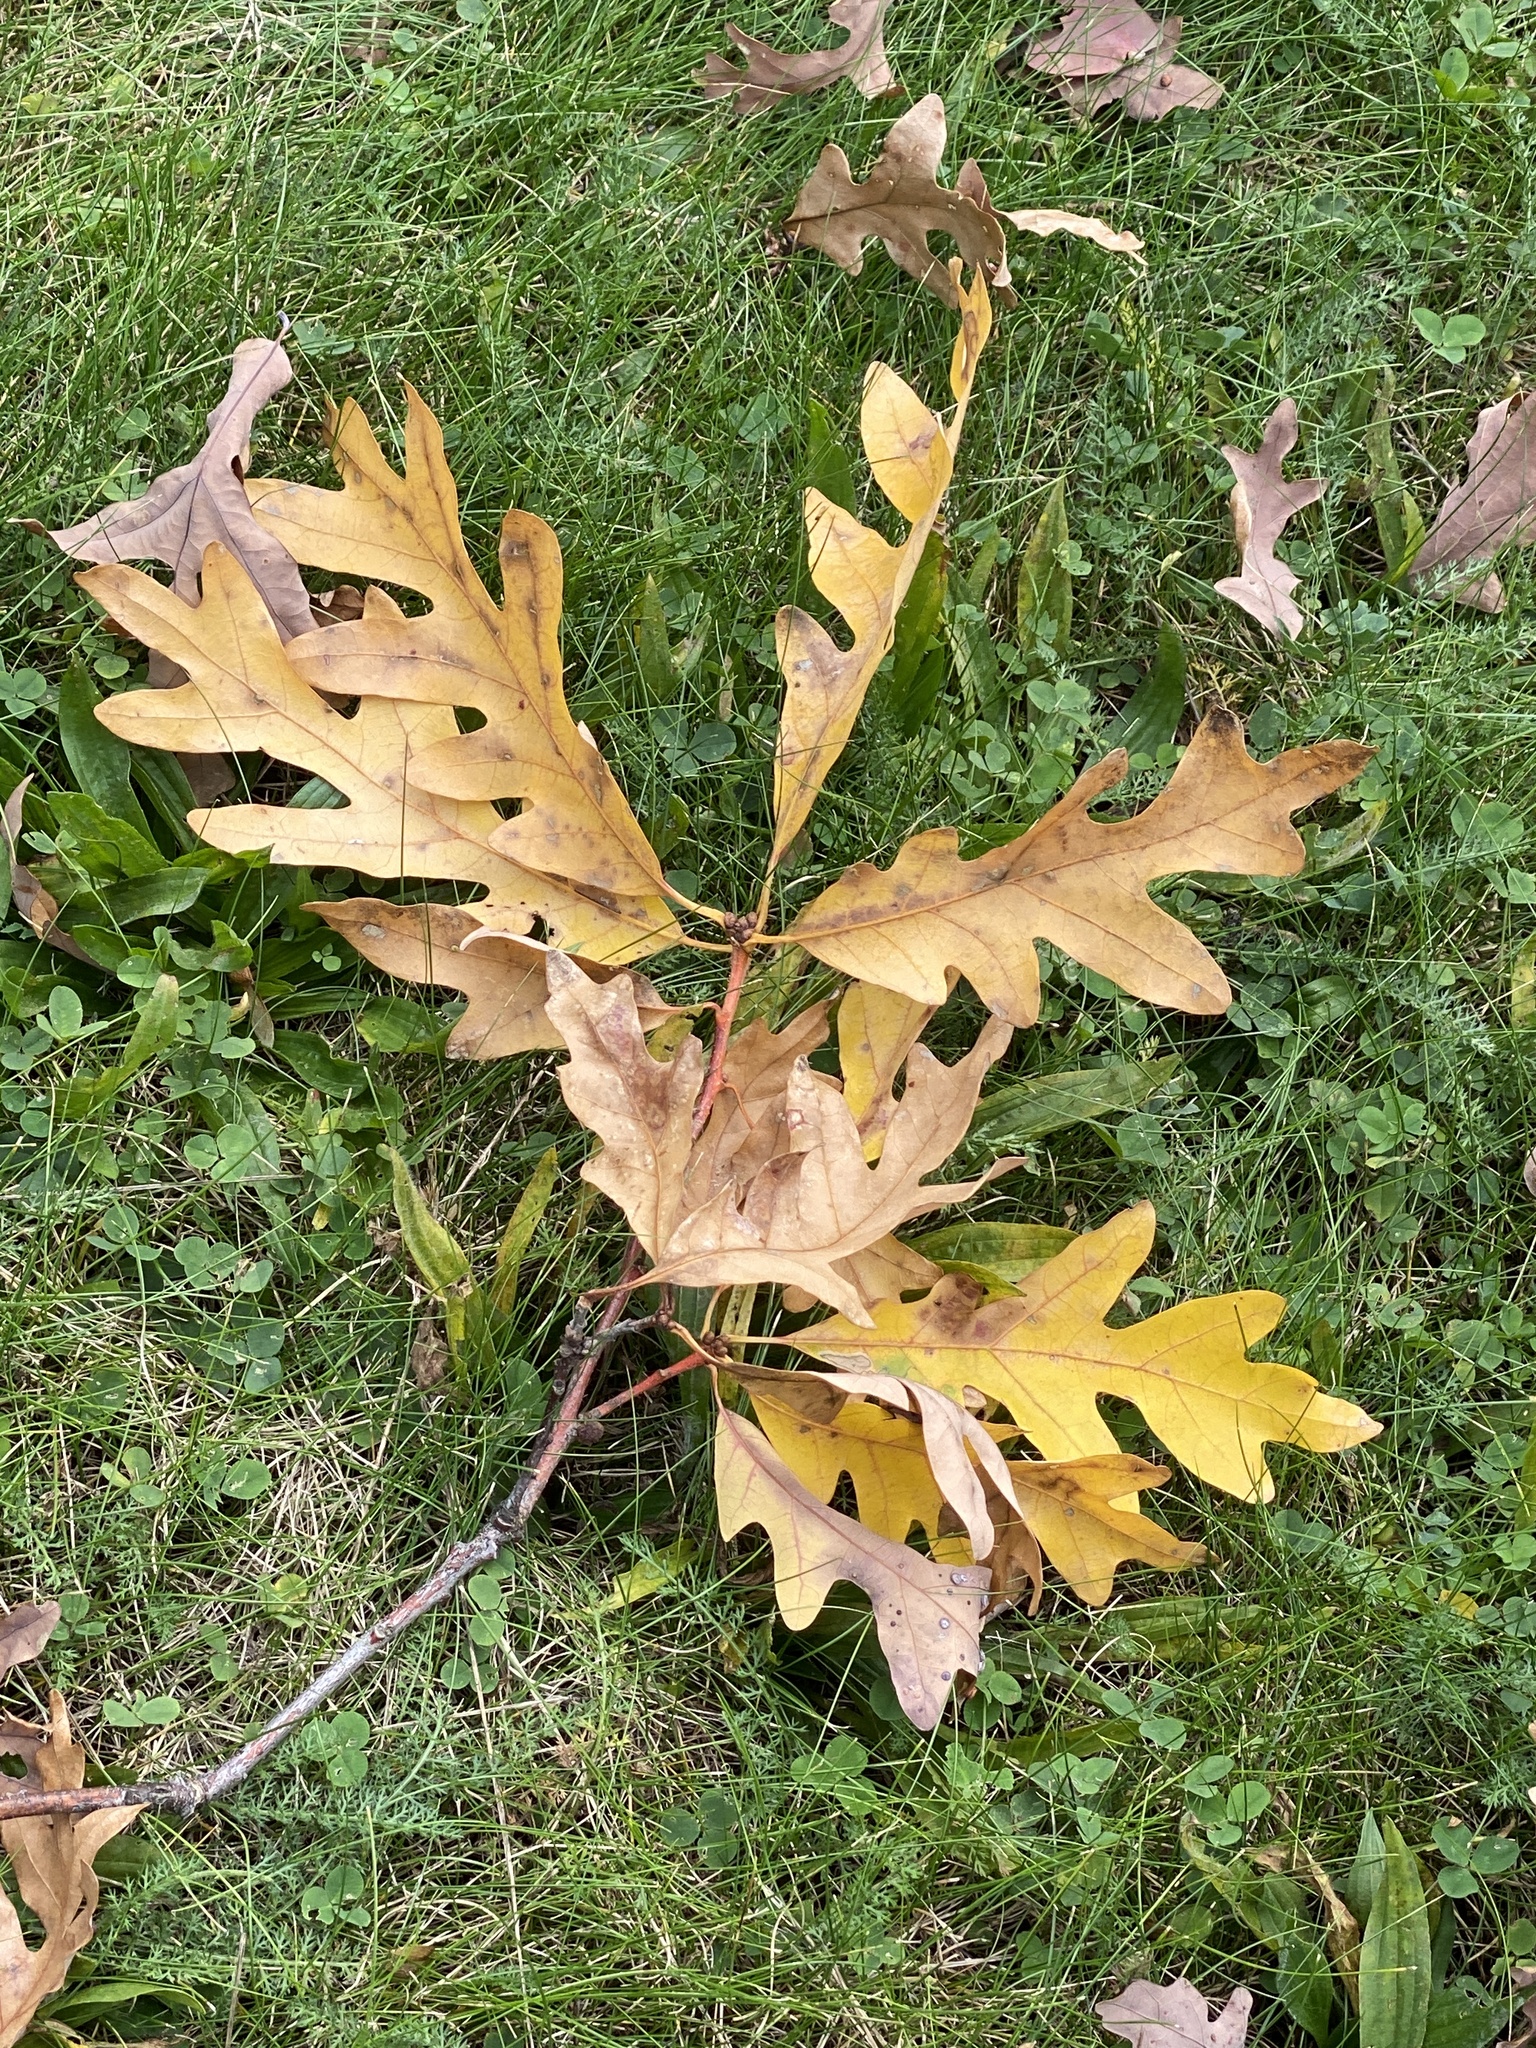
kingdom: Plantae
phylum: Tracheophyta
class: Magnoliopsida
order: Fagales
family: Fagaceae
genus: Quercus
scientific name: Quercus alba
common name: White oak
